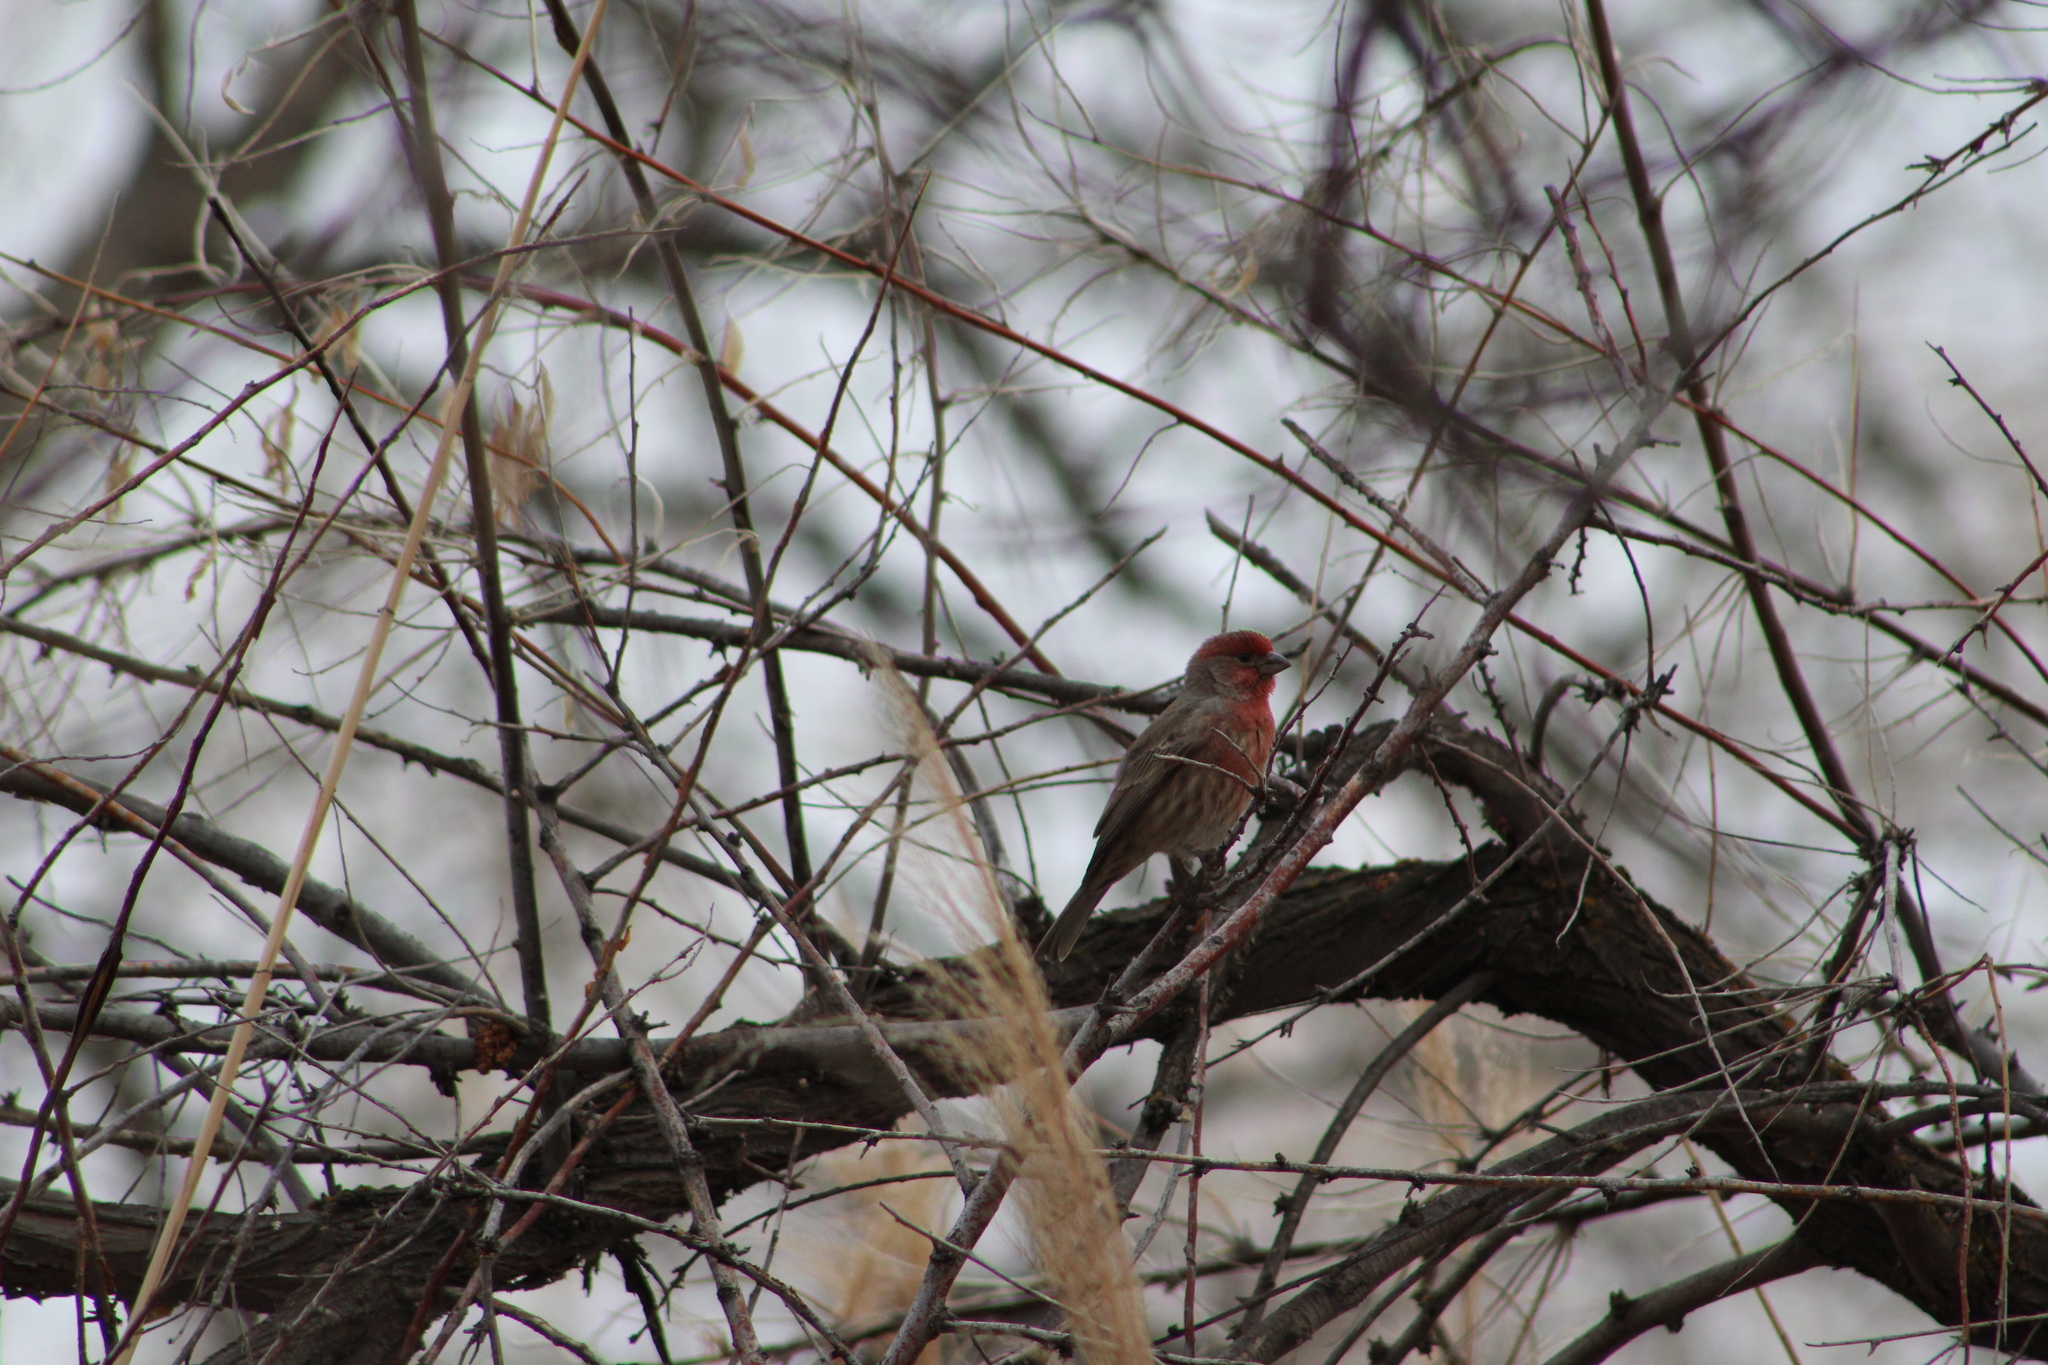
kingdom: Animalia
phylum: Chordata
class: Aves
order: Passeriformes
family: Fringillidae
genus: Haemorhous
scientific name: Haemorhous mexicanus
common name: House finch
